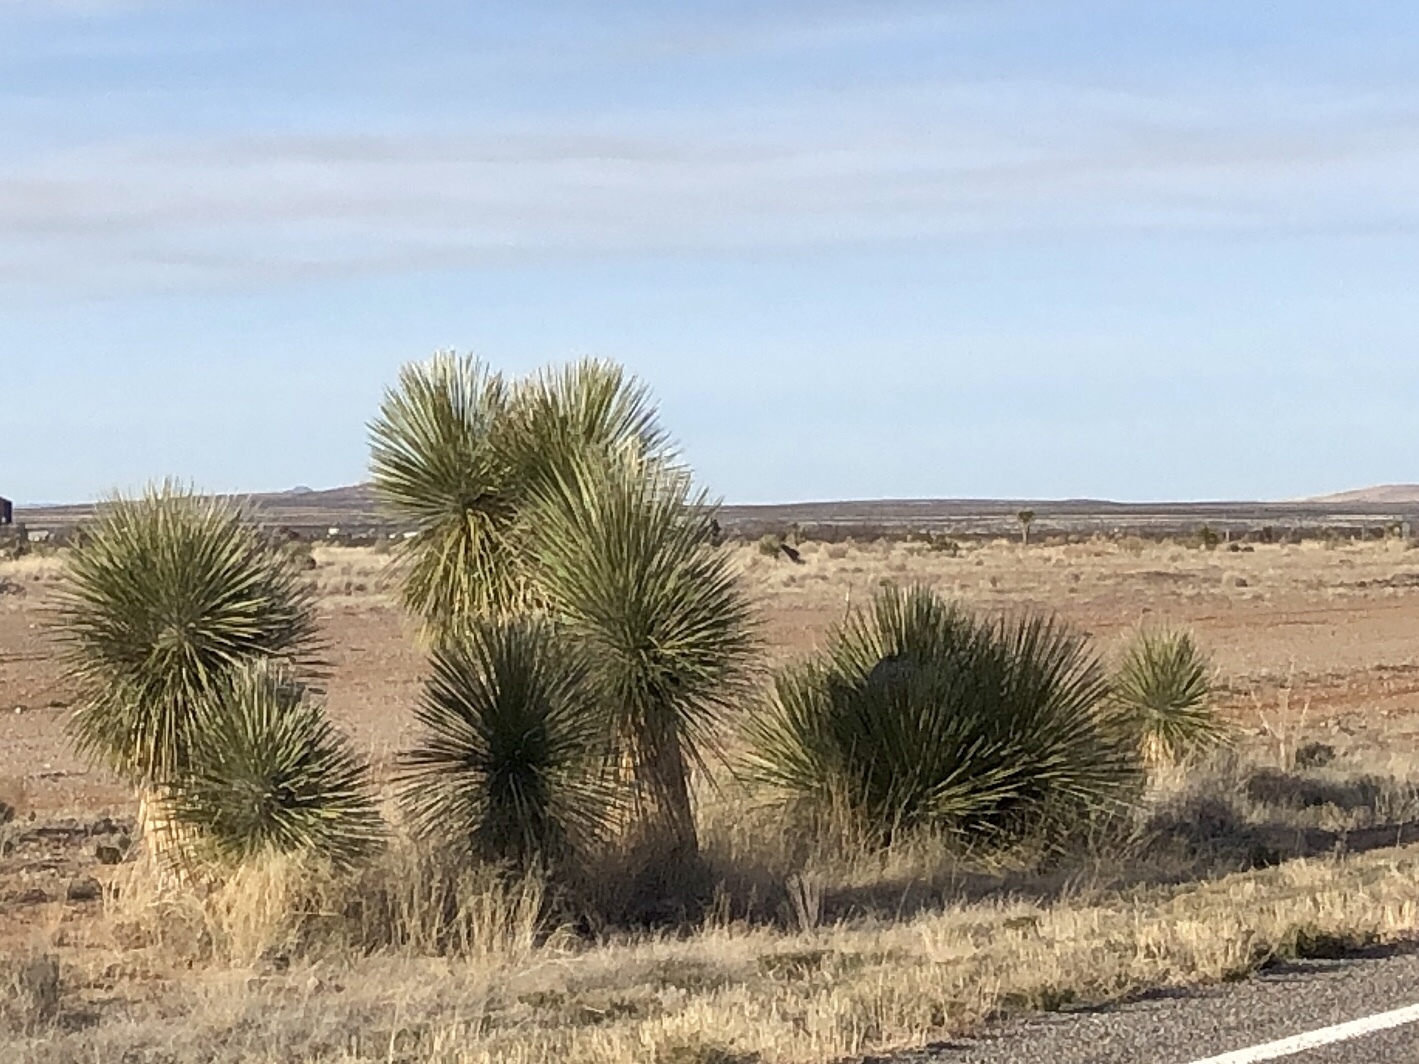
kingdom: Plantae
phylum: Tracheophyta
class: Liliopsida
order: Asparagales
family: Asparagaceae
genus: Yucca
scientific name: Yucca elata
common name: Palmella
